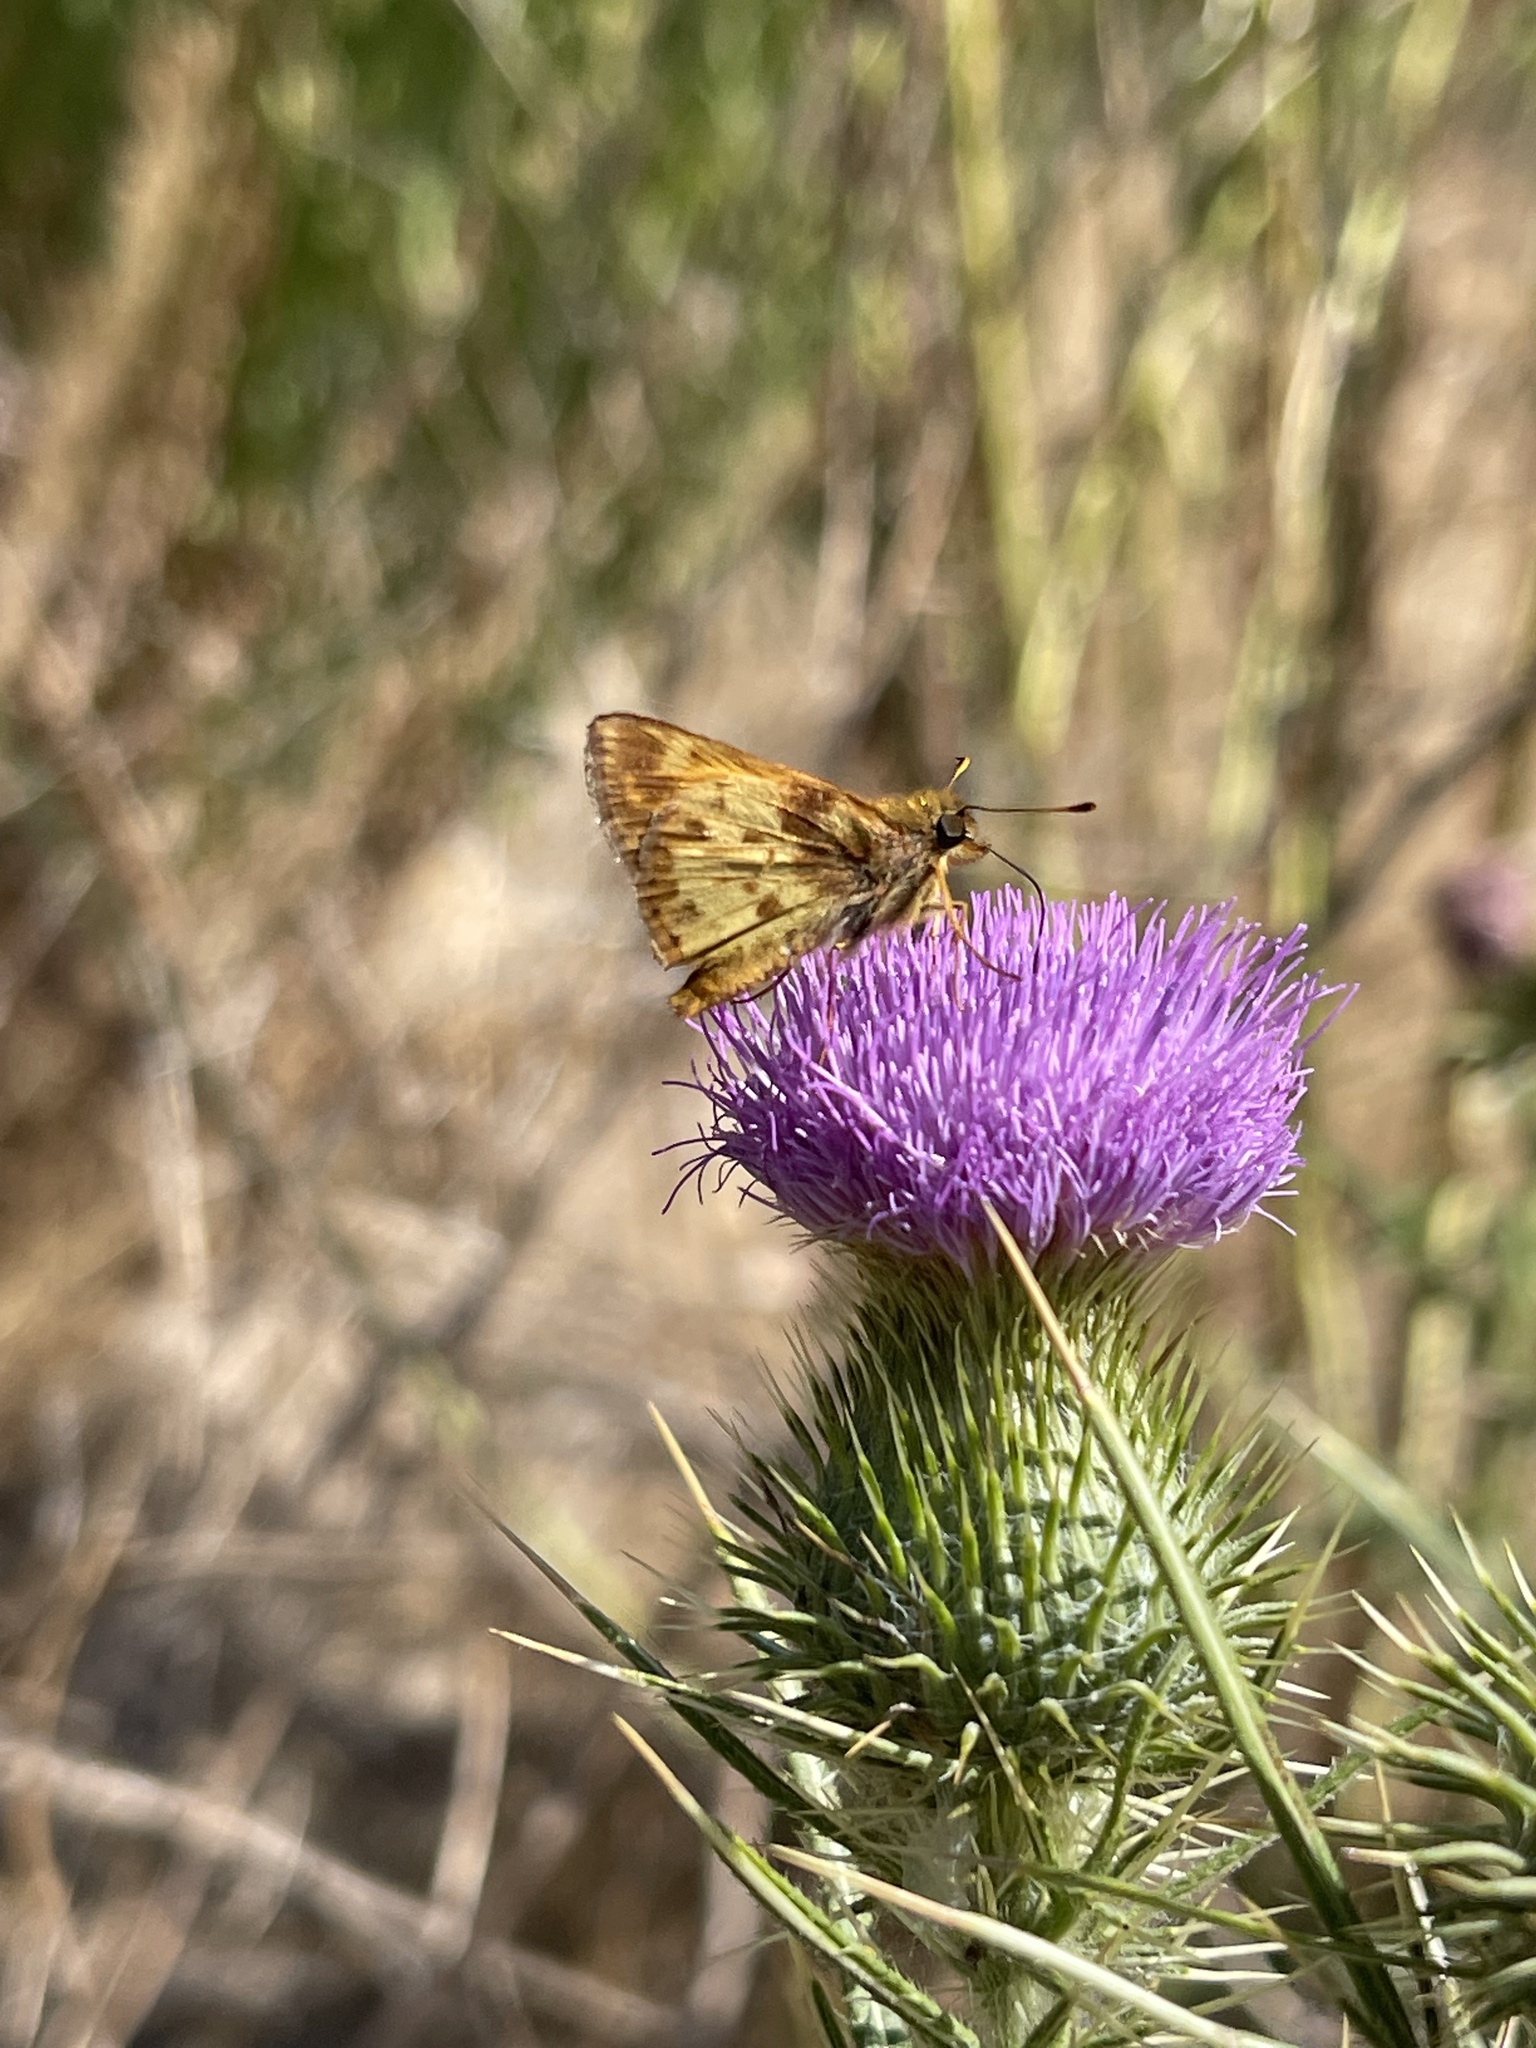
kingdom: Animalia
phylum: Arthropoda
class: Insecta
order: Lepidoptera
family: Hesperiidae
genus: Lon
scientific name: Lon zabulon
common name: Zabulon skipper
